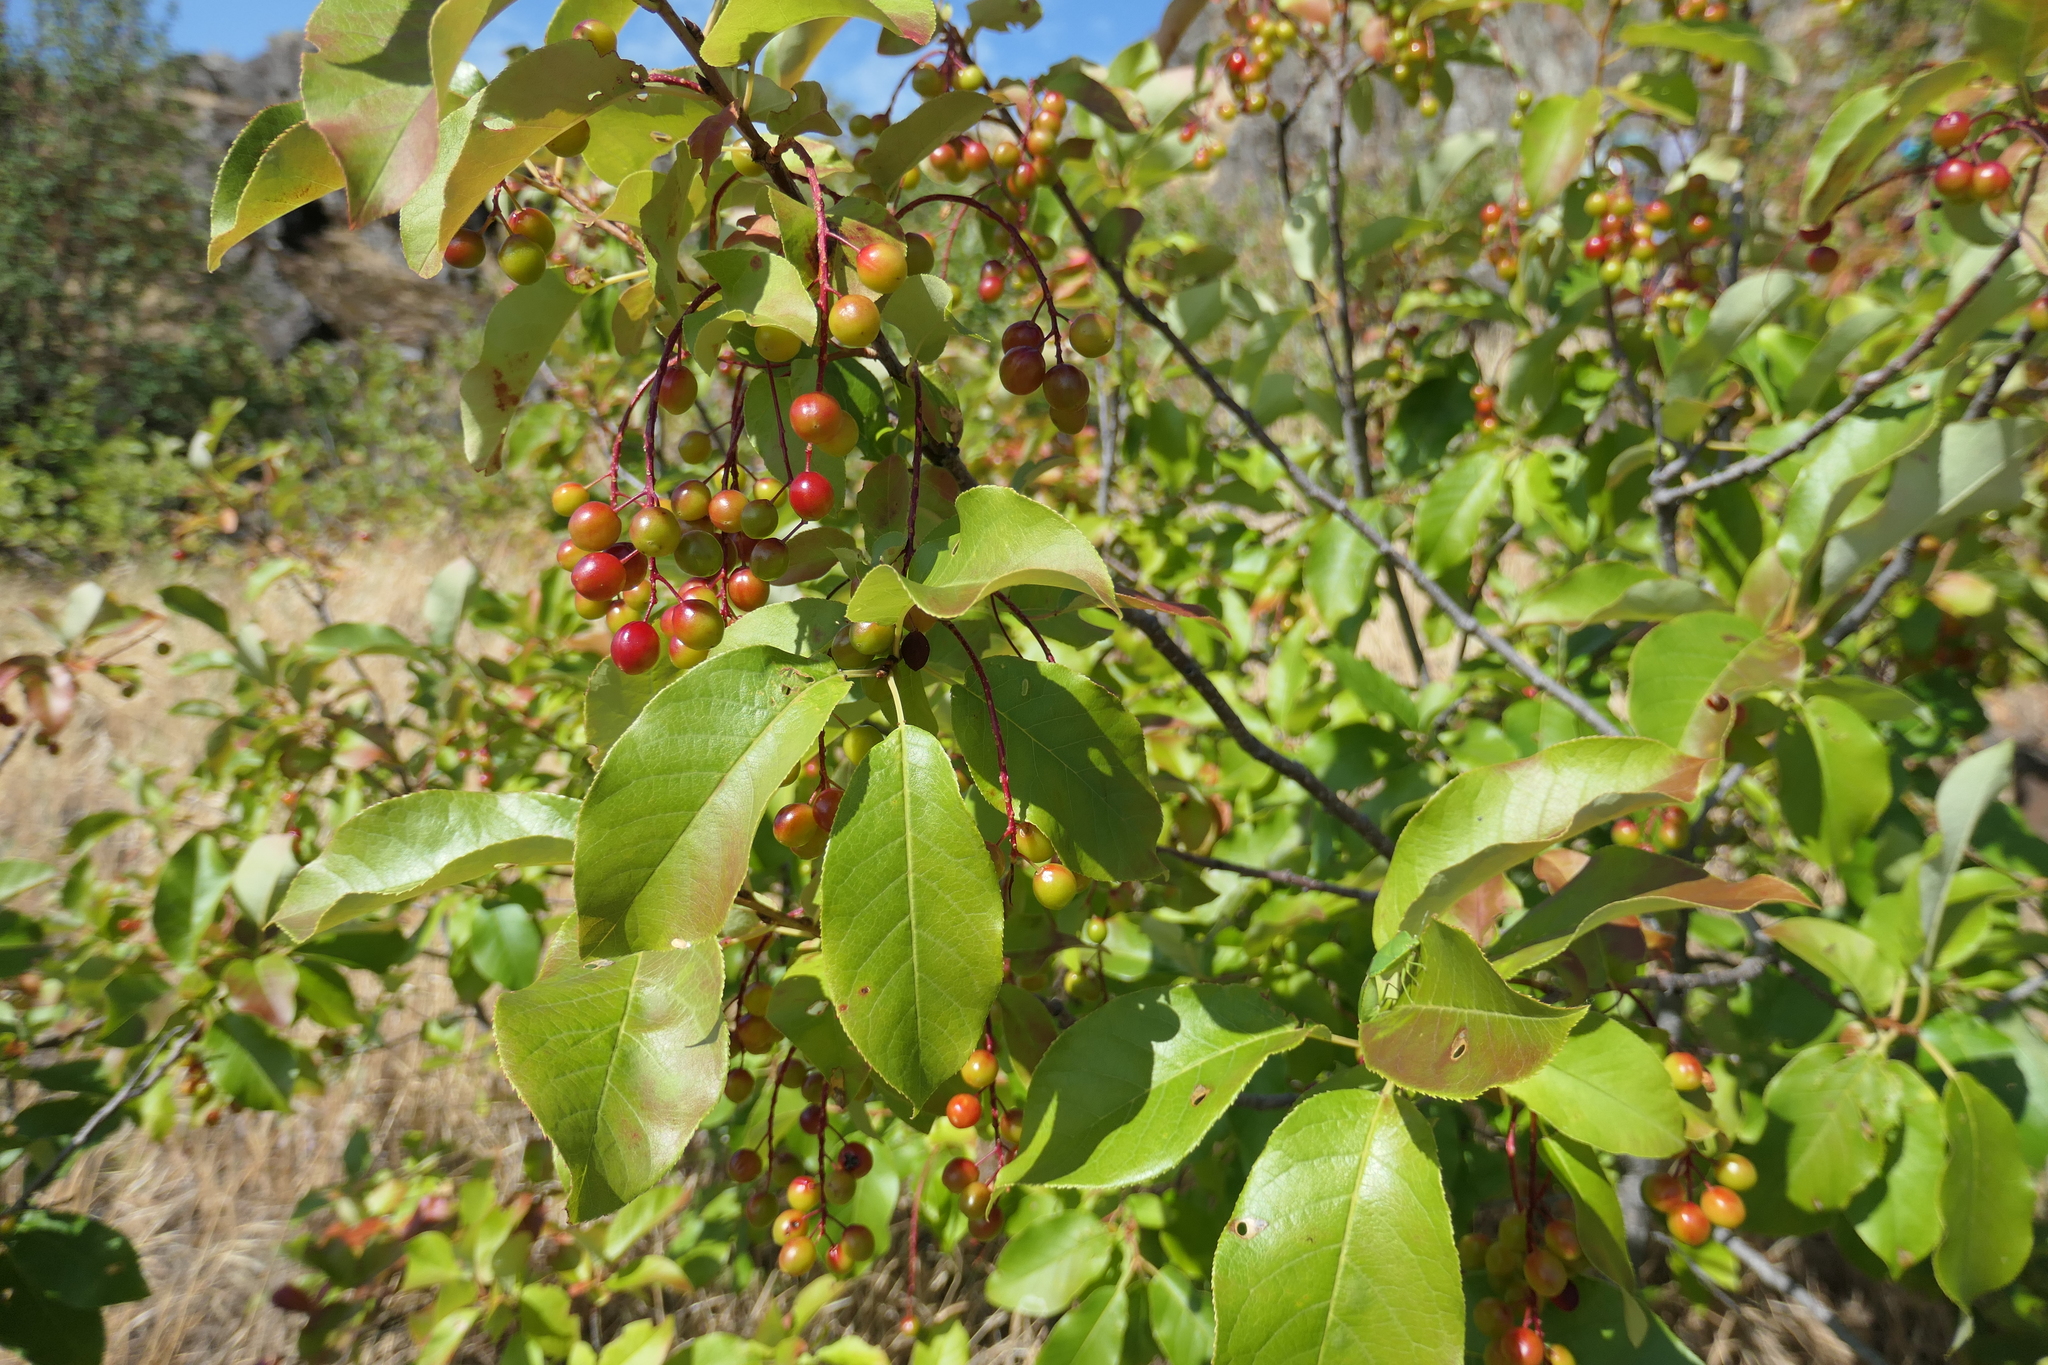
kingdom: Plantae
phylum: Tracheophyta
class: Magnoliopsida
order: Rosales
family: Rosaceae
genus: Prunus
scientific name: Prunus virginiana
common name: Chokecherry
